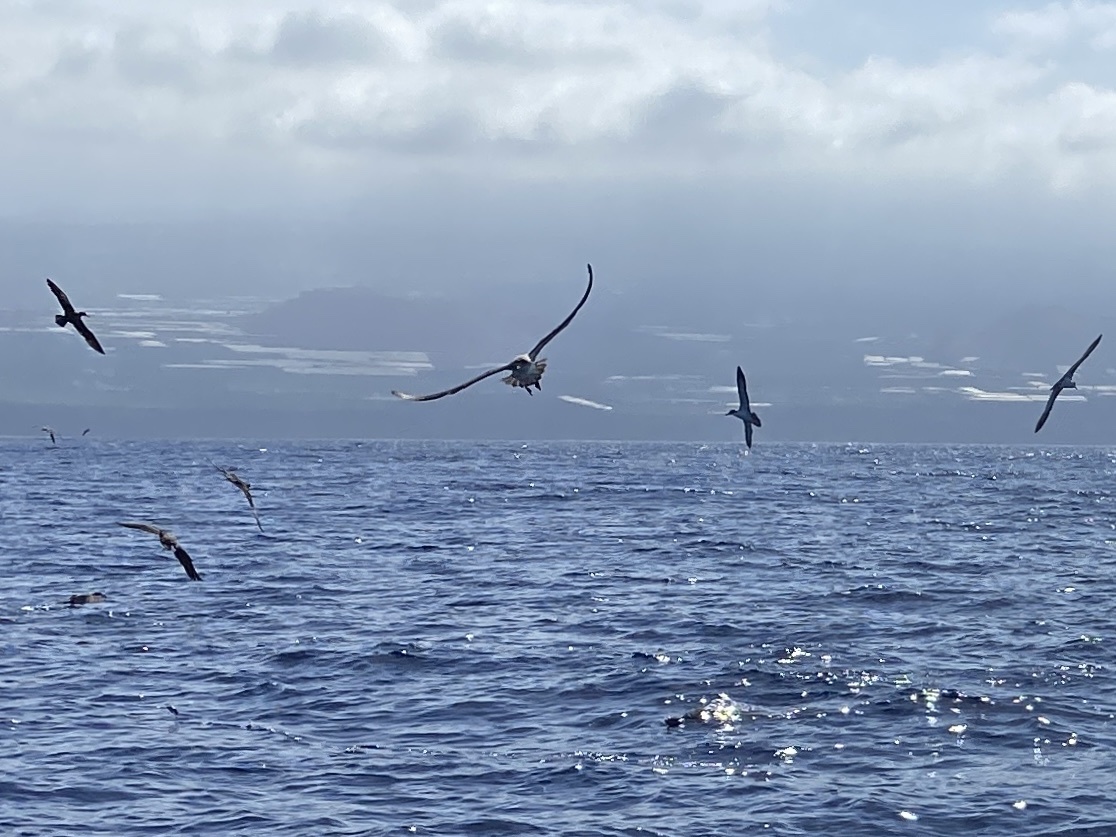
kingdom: Animalia
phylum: Chordata
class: Aves
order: Procellariiformes
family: Procellariidae
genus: Calonectris
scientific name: Calonectris diomedea
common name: Cory's shearwater
